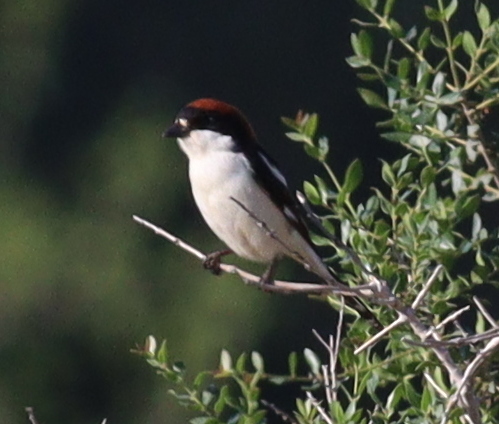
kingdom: Animalia
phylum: Chordata
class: Aves
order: Passeriformes
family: Laniidae
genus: Lanius
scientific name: Lanius senator
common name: Woodchat shrike
